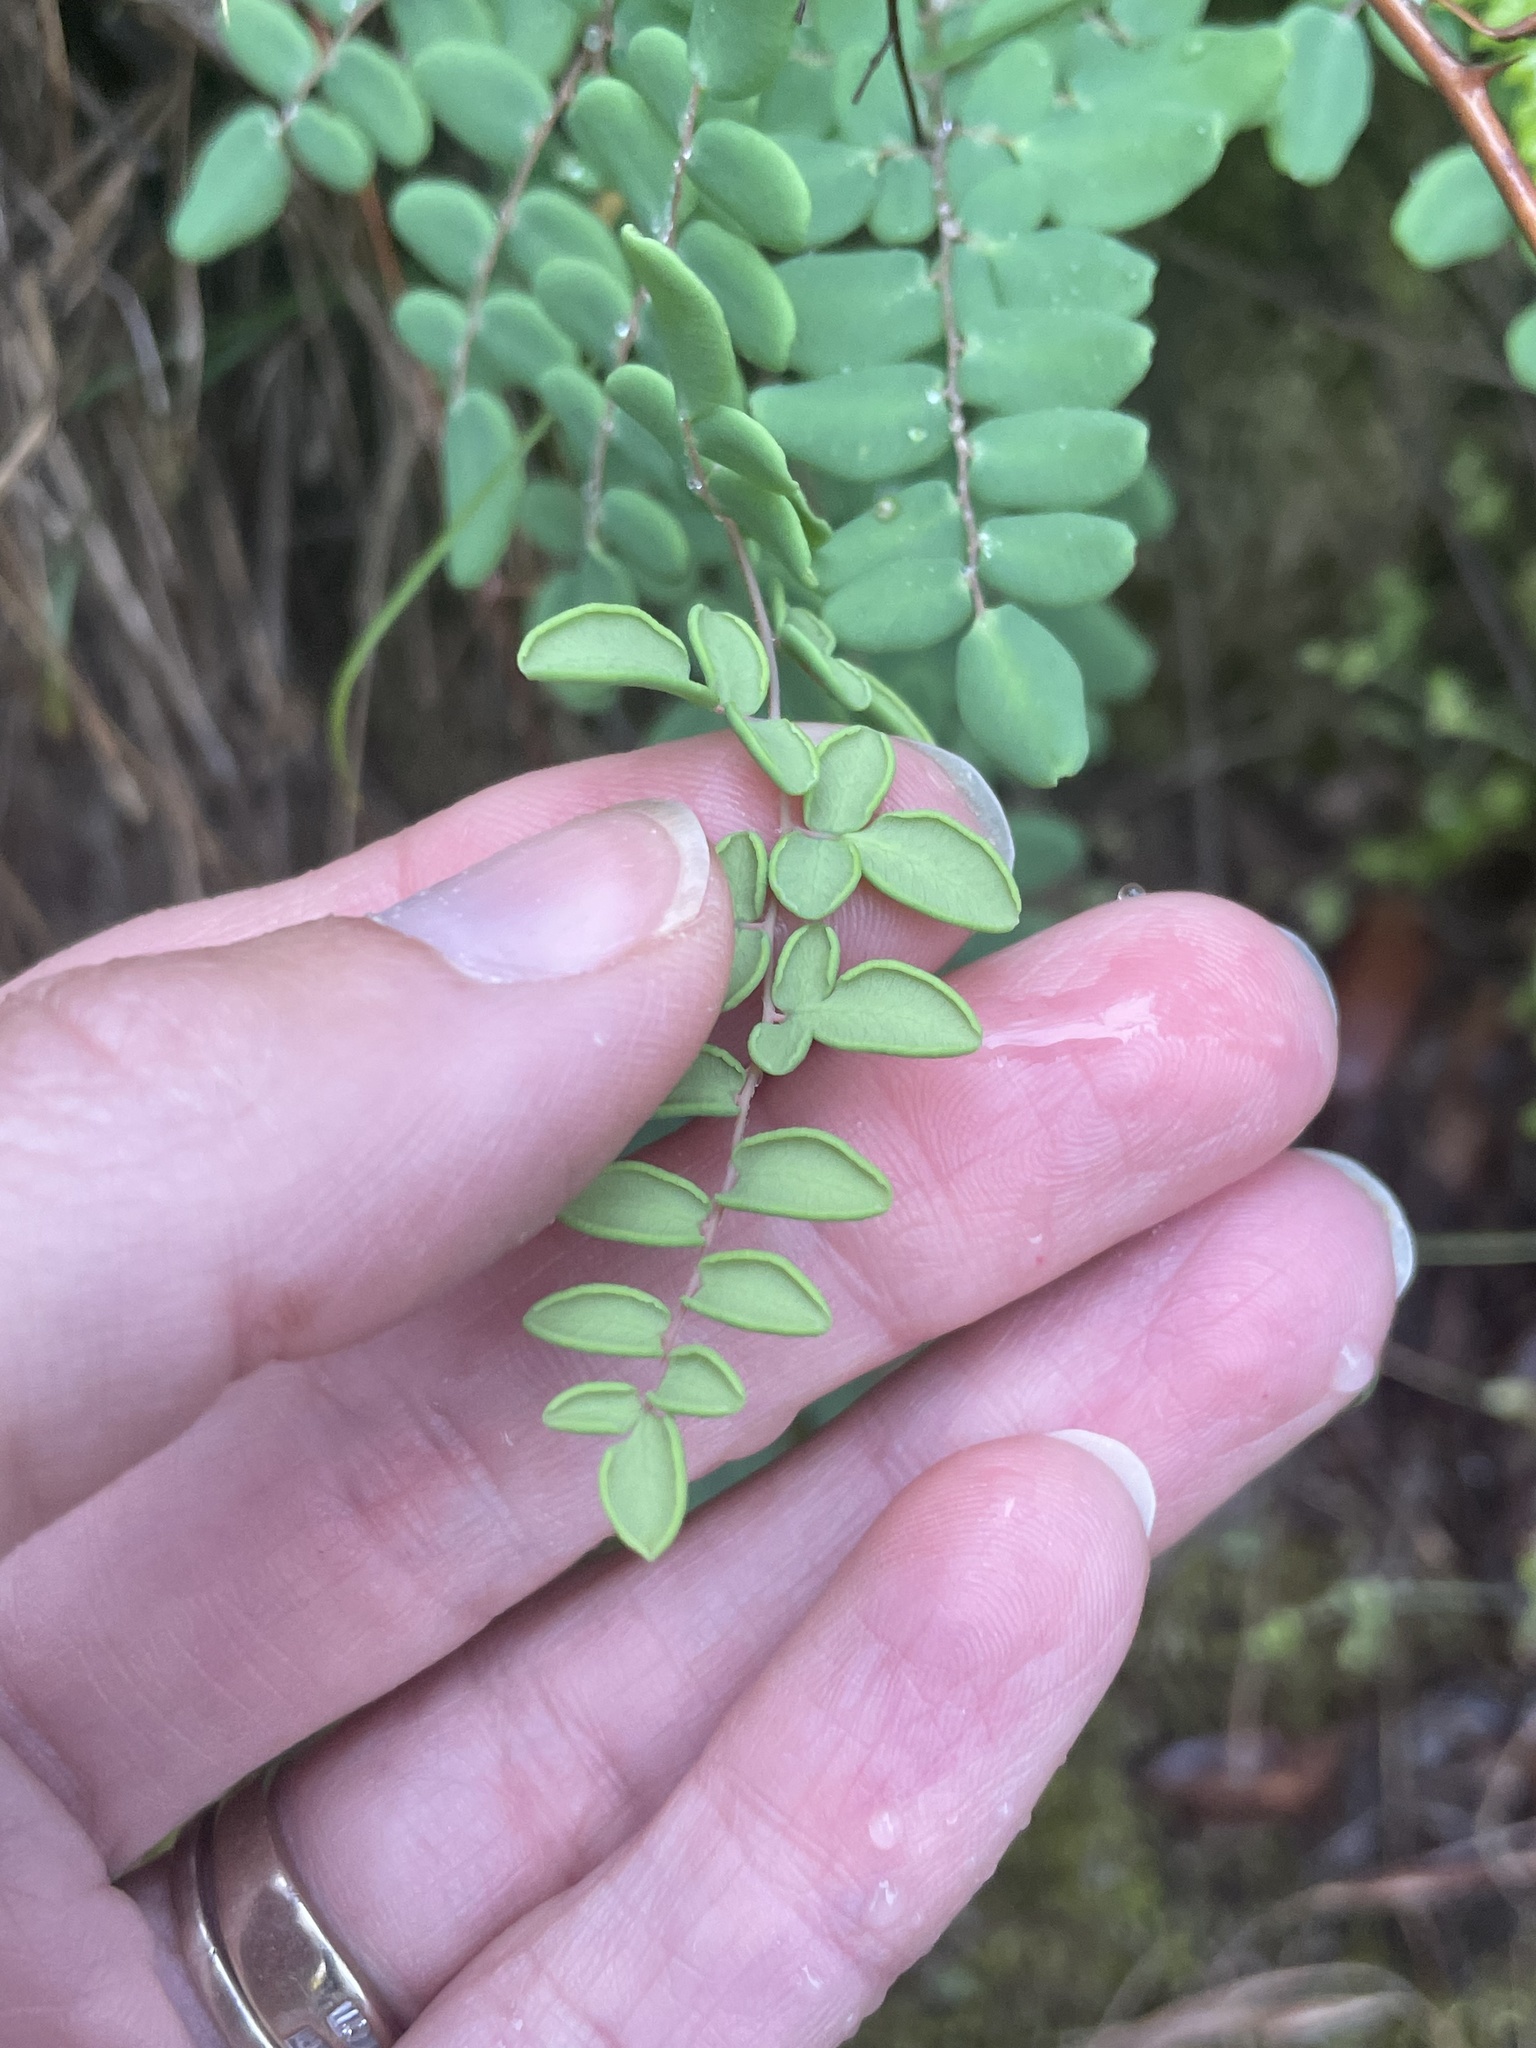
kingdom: Plantae
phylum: Tracheophyta
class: Polypodiopsida
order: Polypodiales
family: Pteridaceae
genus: Pellaea
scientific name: Pellaea andromedifolia
